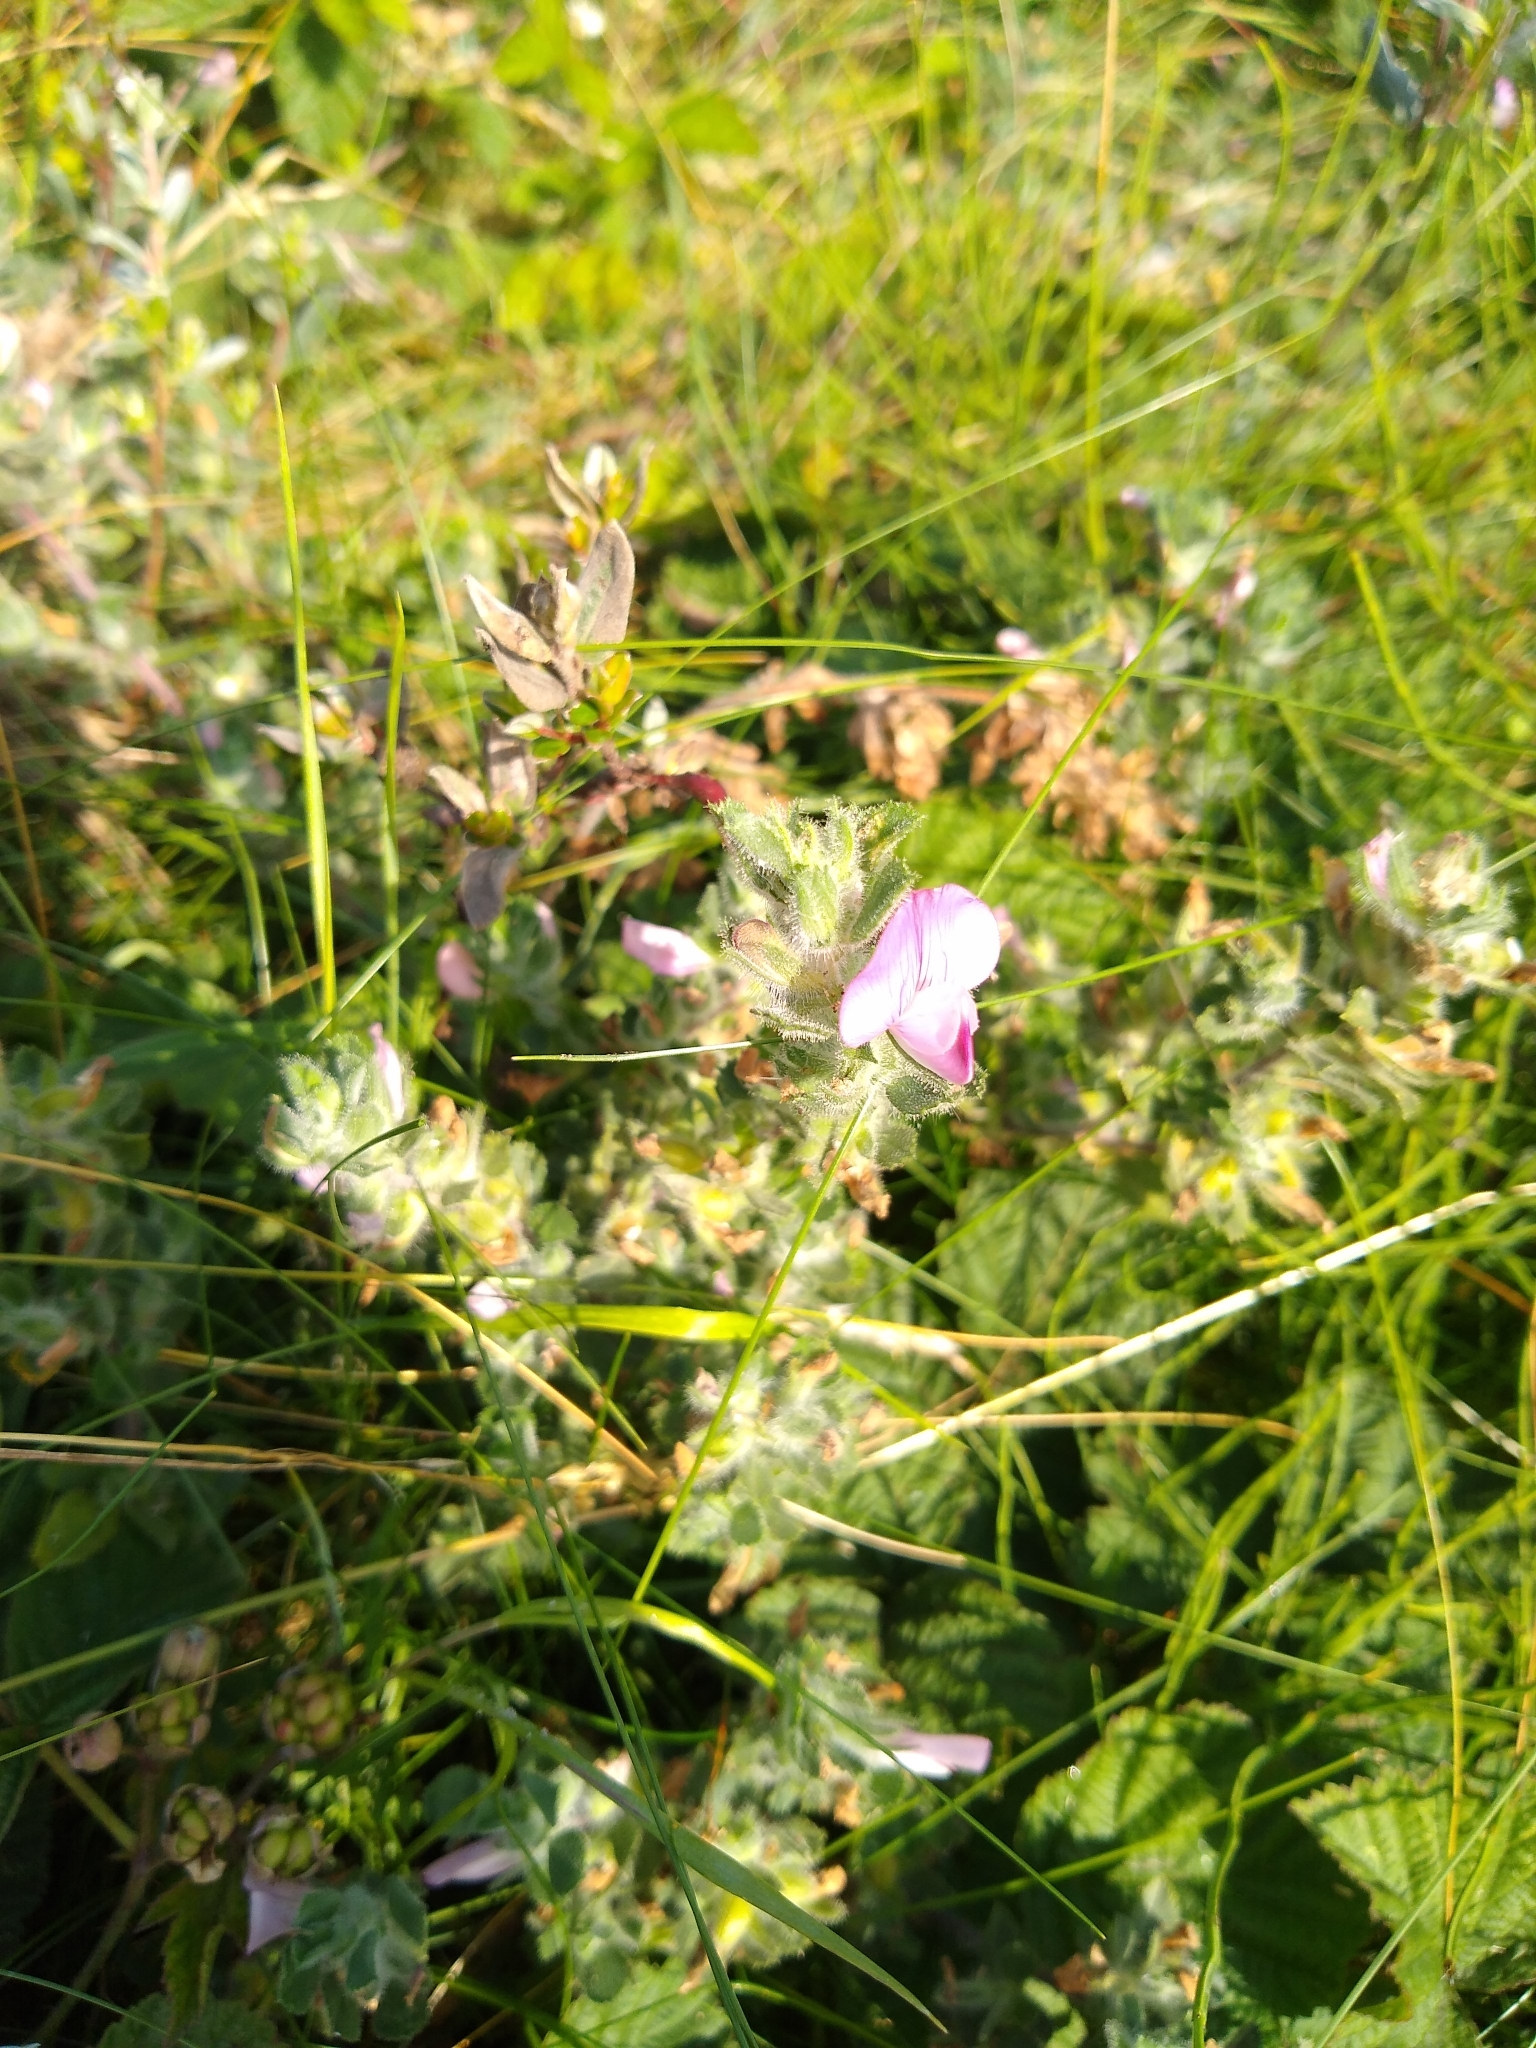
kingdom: Plantae
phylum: Tracheophyta
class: Magnoliopsida
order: Fabales
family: Fabaceae
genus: Ononis
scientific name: Ononis spinosa
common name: Spiny restharrow
